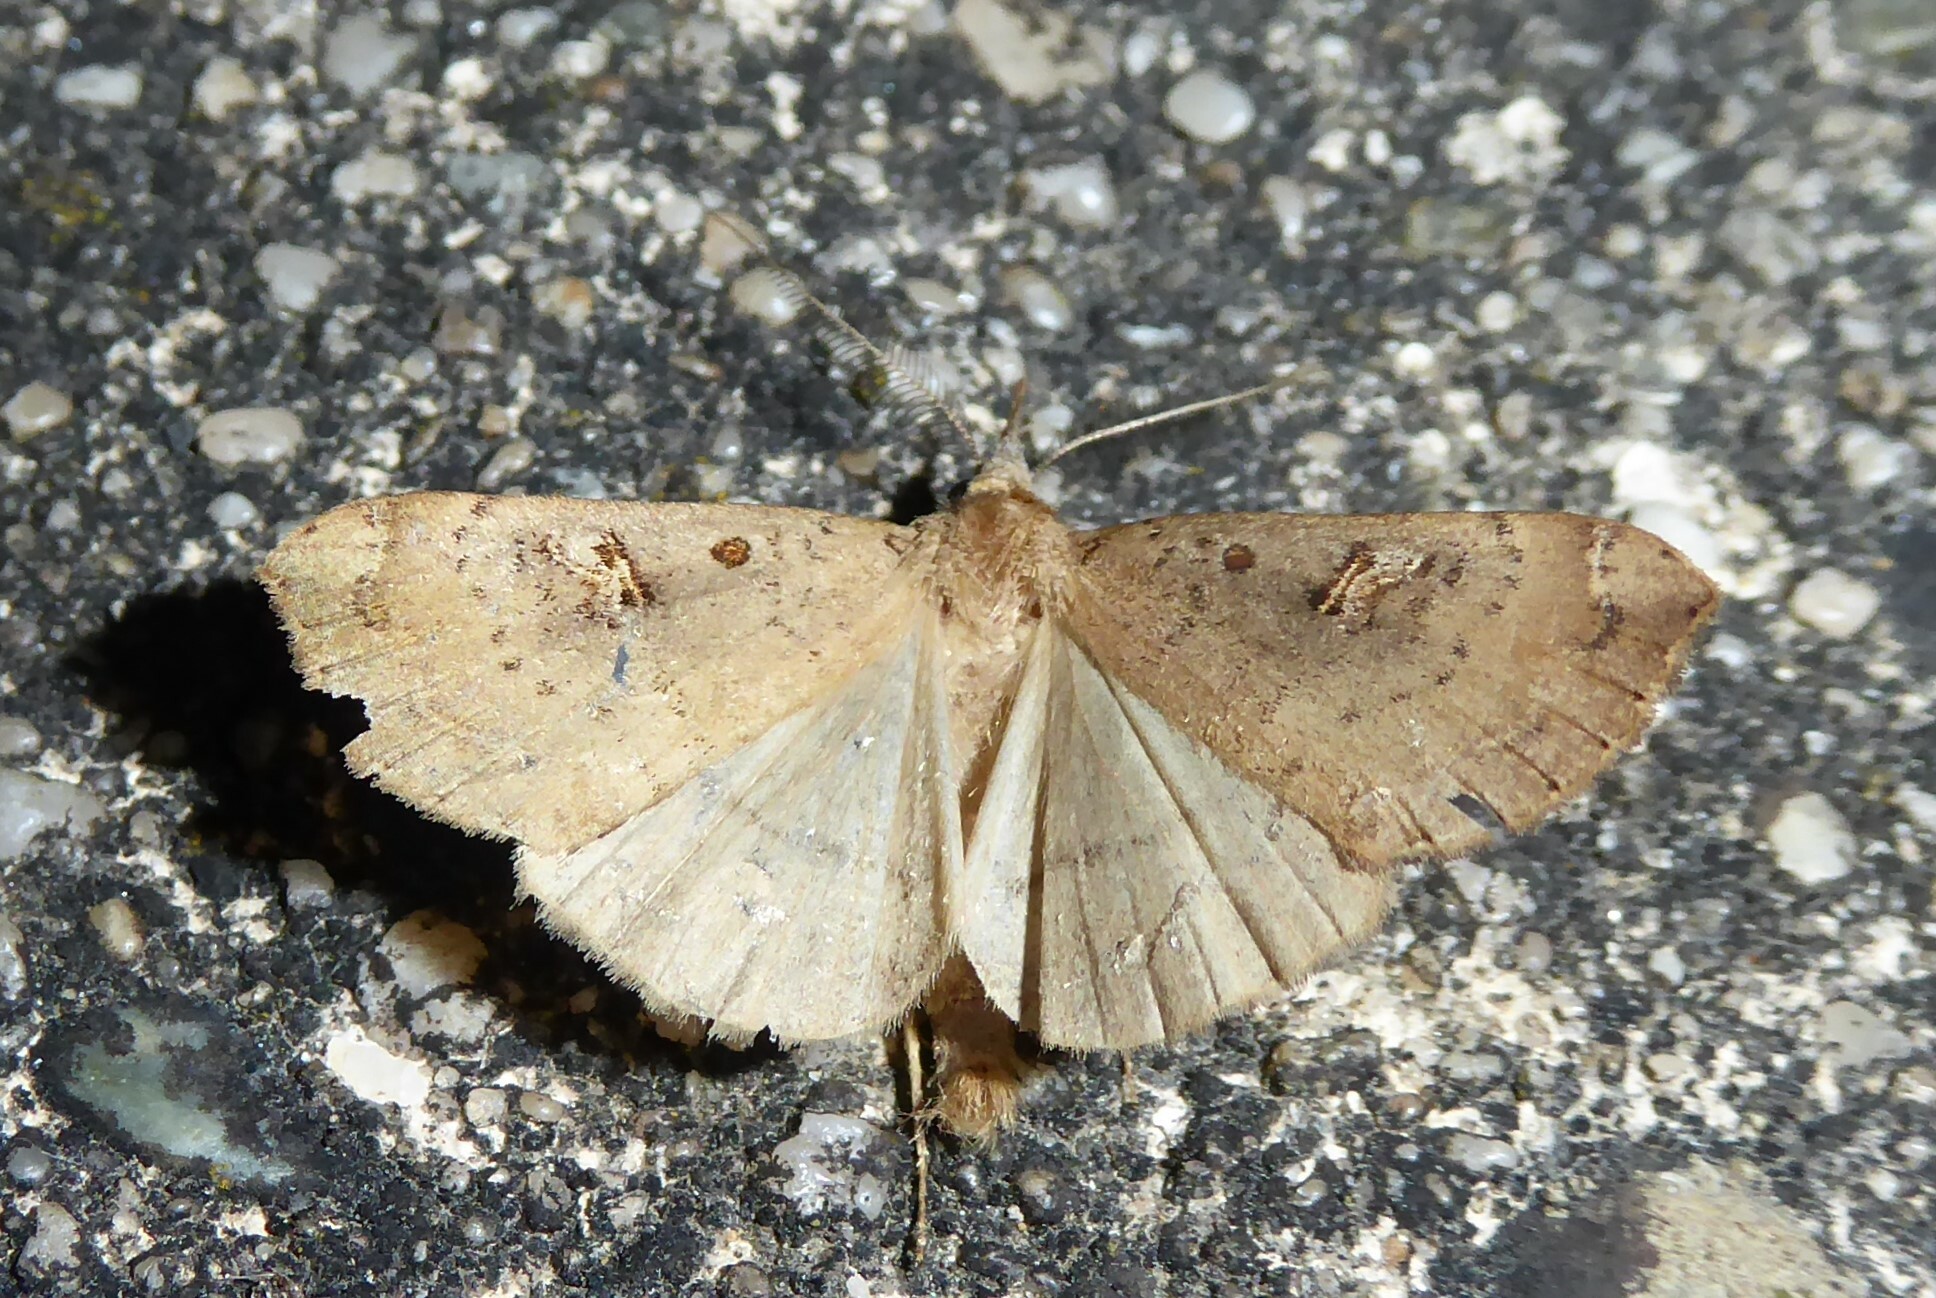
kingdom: Animalia
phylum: Arthropoda
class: Insecta
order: Lepidoptera
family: Erebidae
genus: Rhapsa
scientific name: Rhapsa scotosialis
